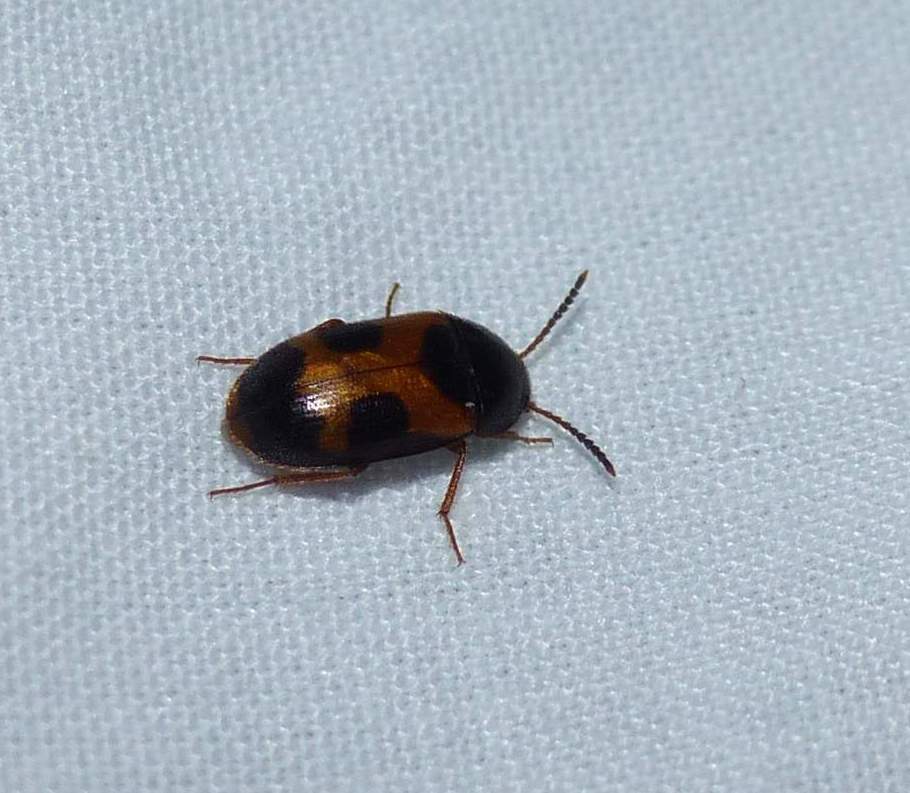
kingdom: Animalia
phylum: Arthropoda
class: Insecta
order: Coleoptera
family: Mycetophagidae
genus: Mycetophagus
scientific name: Mycetophagus punctatus
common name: Hairy fungus beetle
